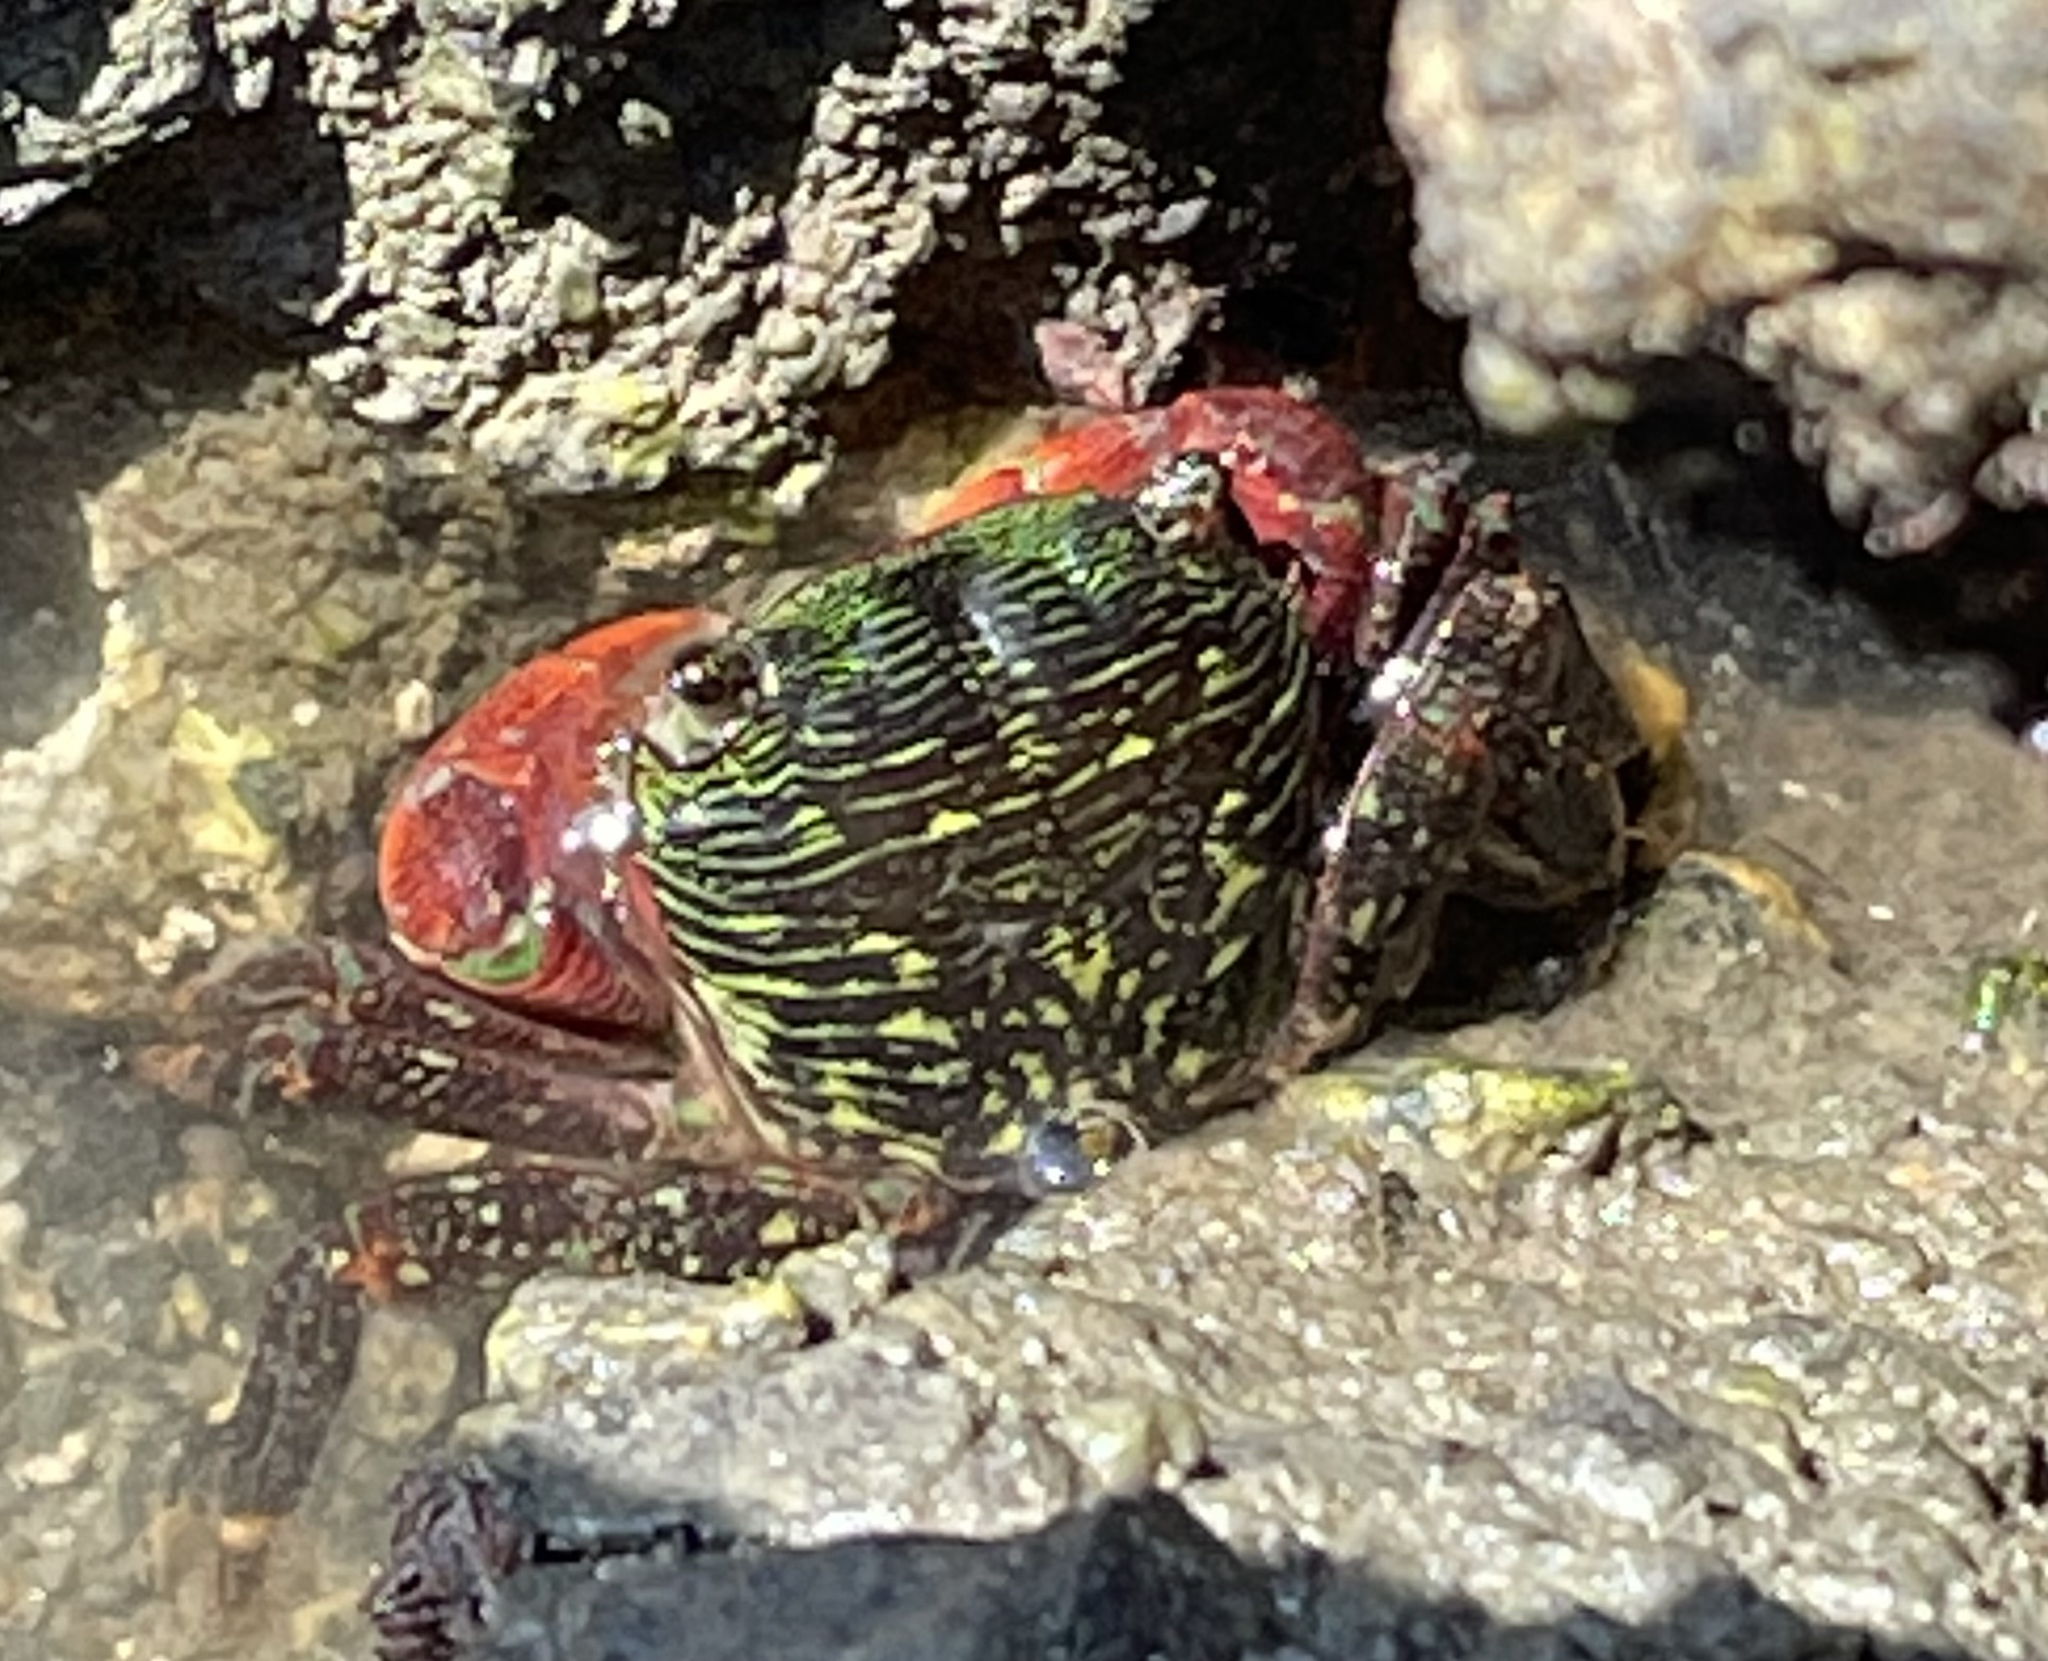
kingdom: Animalia
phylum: Arthropoda
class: Malacostraca
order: Decapoda
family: Grapsidae
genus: Pachygrapsus
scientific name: Pachygrapsus crassipes
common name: Striped shore crab
